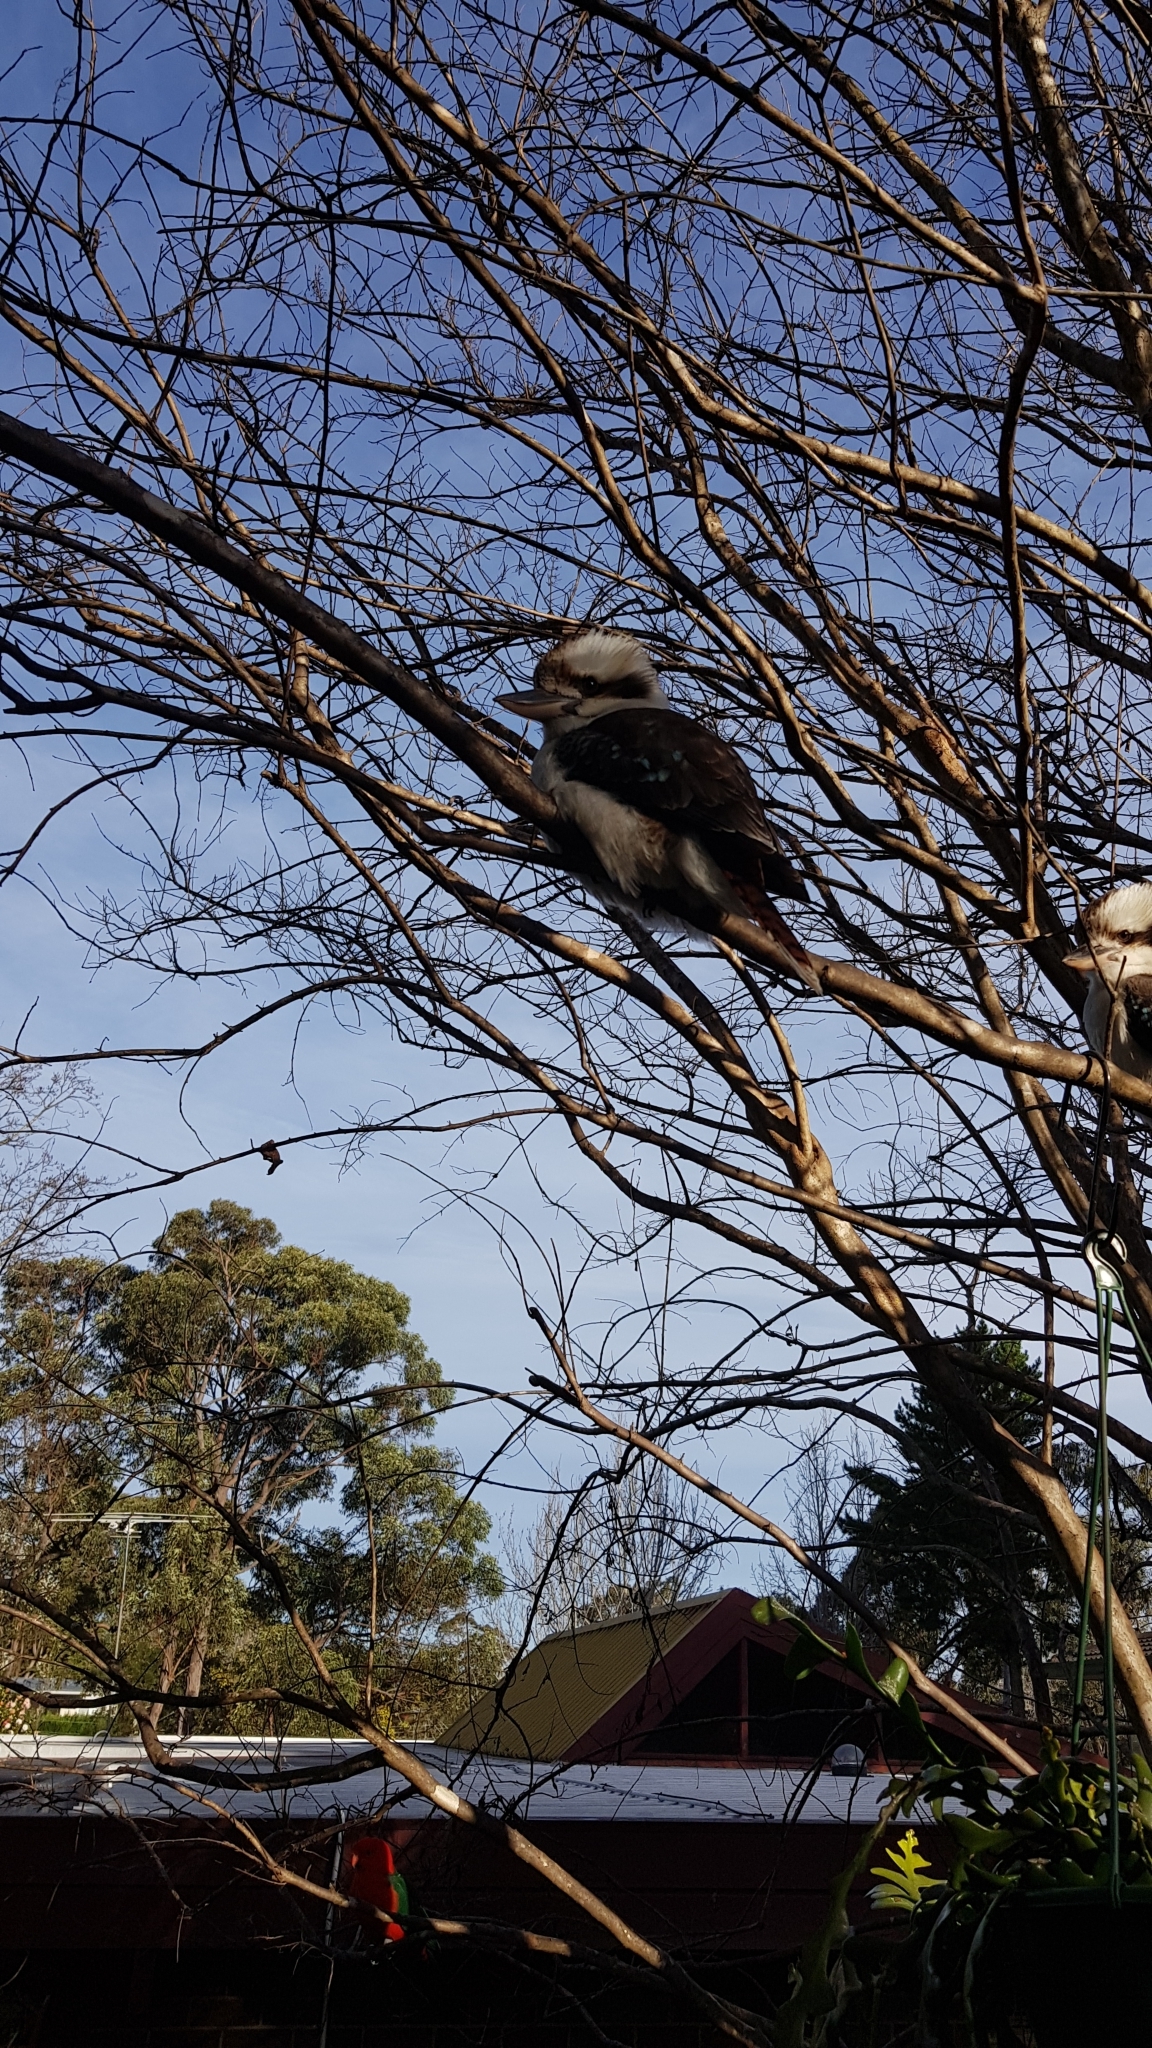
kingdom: Animalia
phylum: Chordata
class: Aves
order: Coraciiformes
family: Alcedinidae
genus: Dacelo
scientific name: Dacelo novaeguineae
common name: Laughing kookaburra
